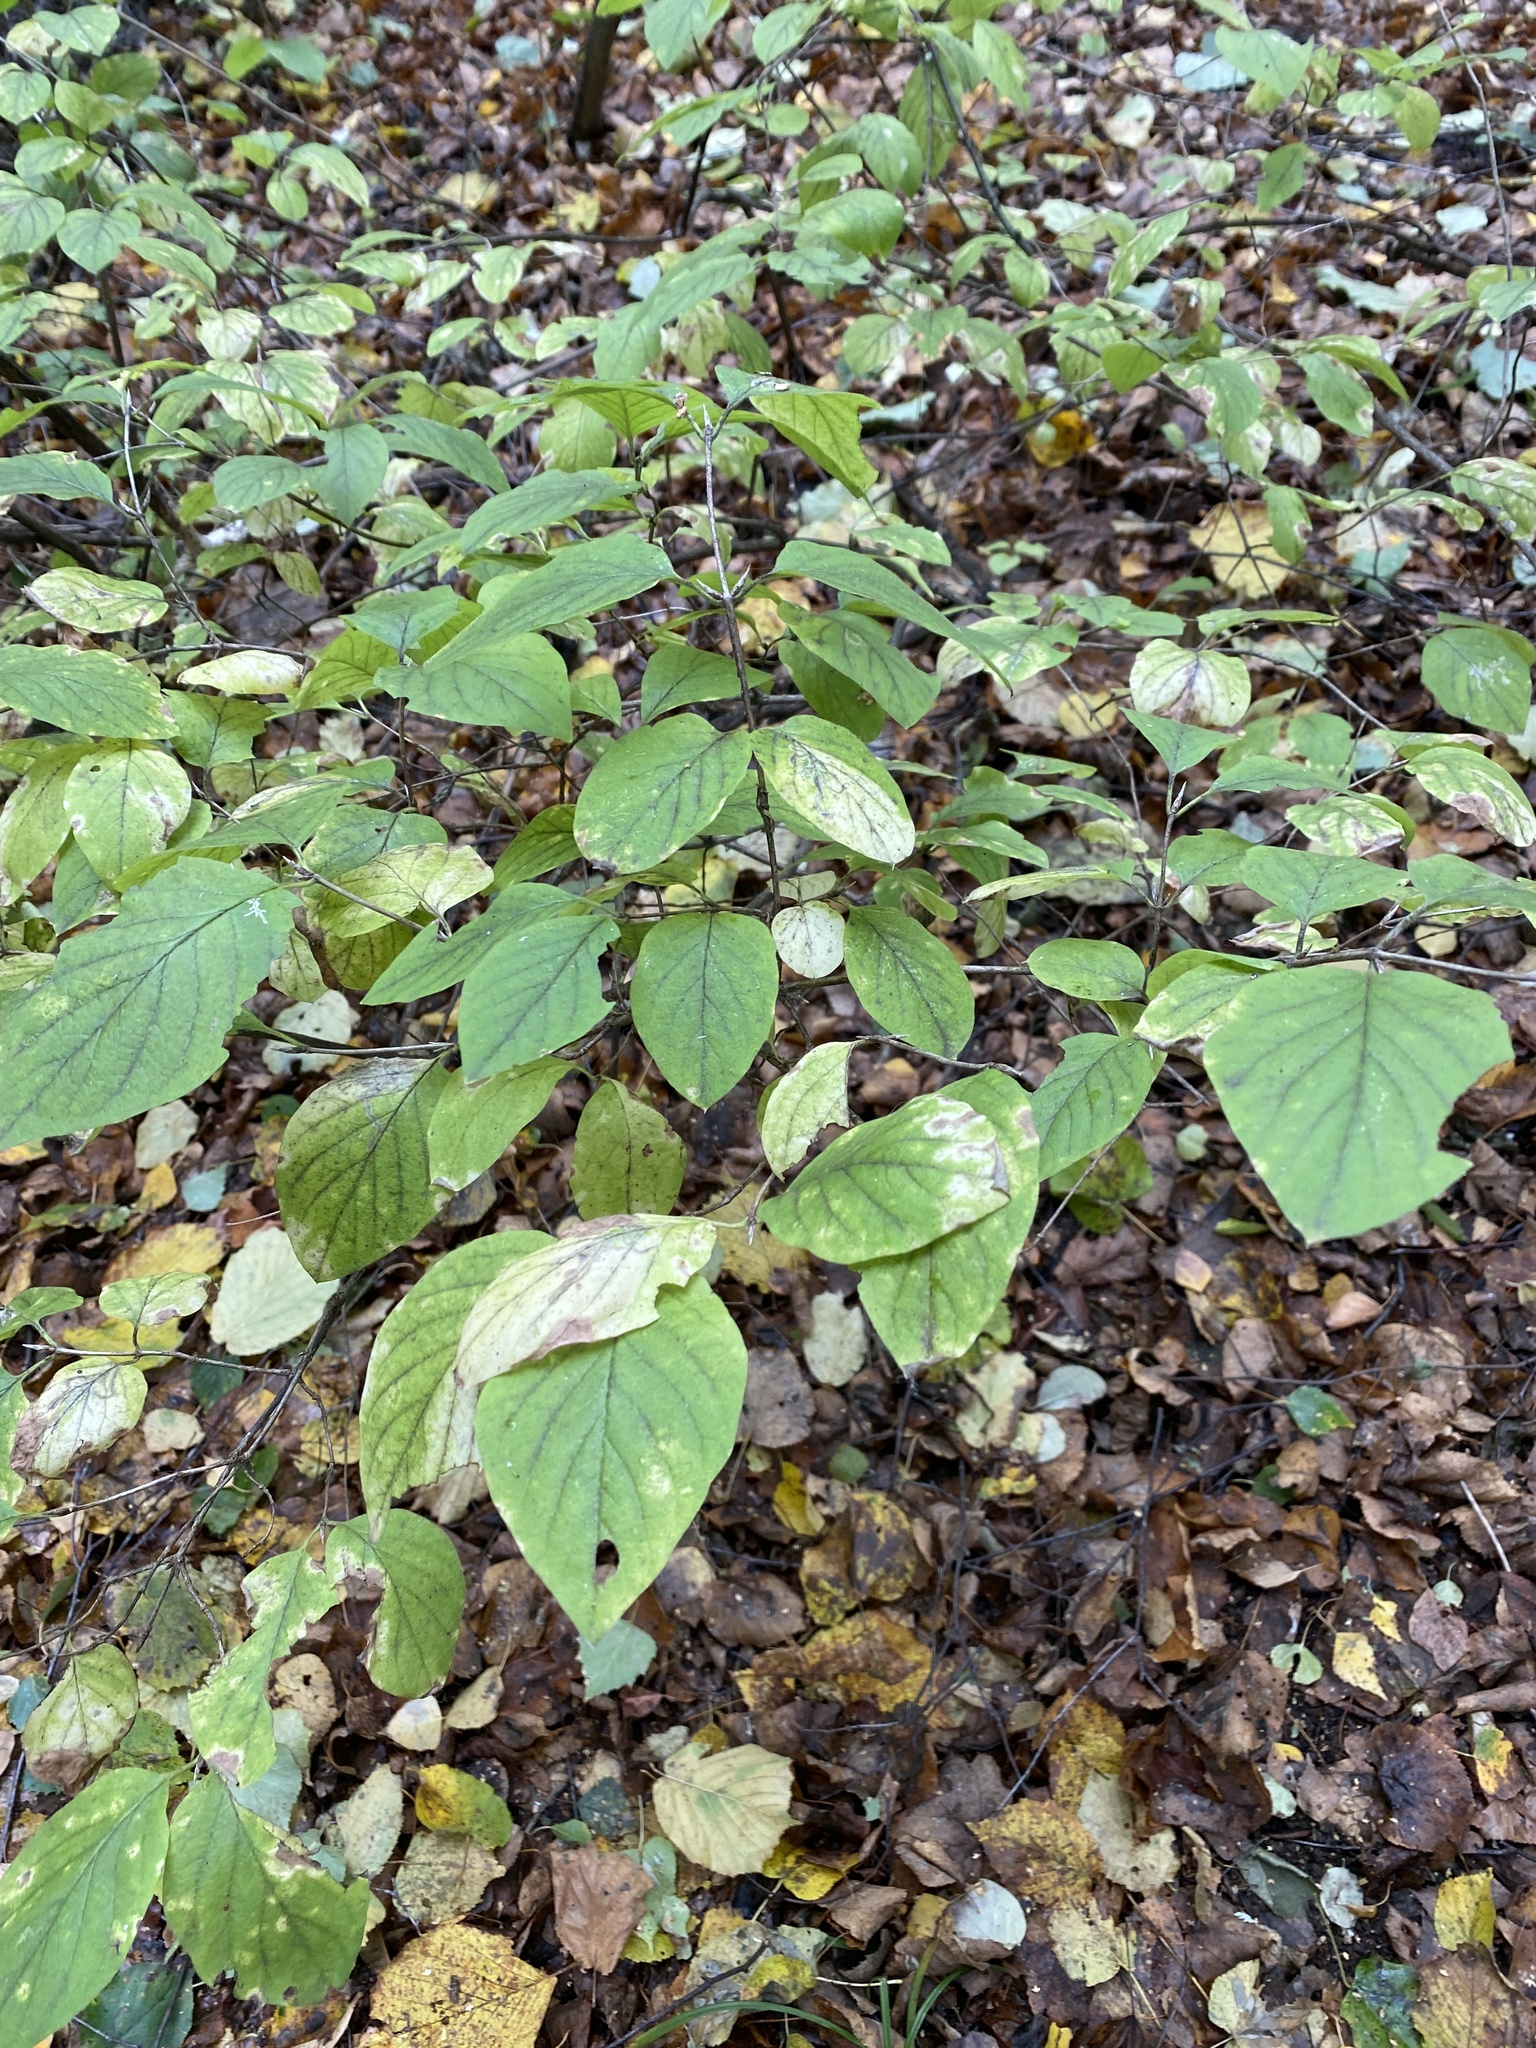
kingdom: Plantae
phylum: Tracheophyta
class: Magnoliopsida
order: Dipsacales
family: Caprifoliaceae
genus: Lonicera
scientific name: Lonicera xylosteum
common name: Fly honeysuckle
